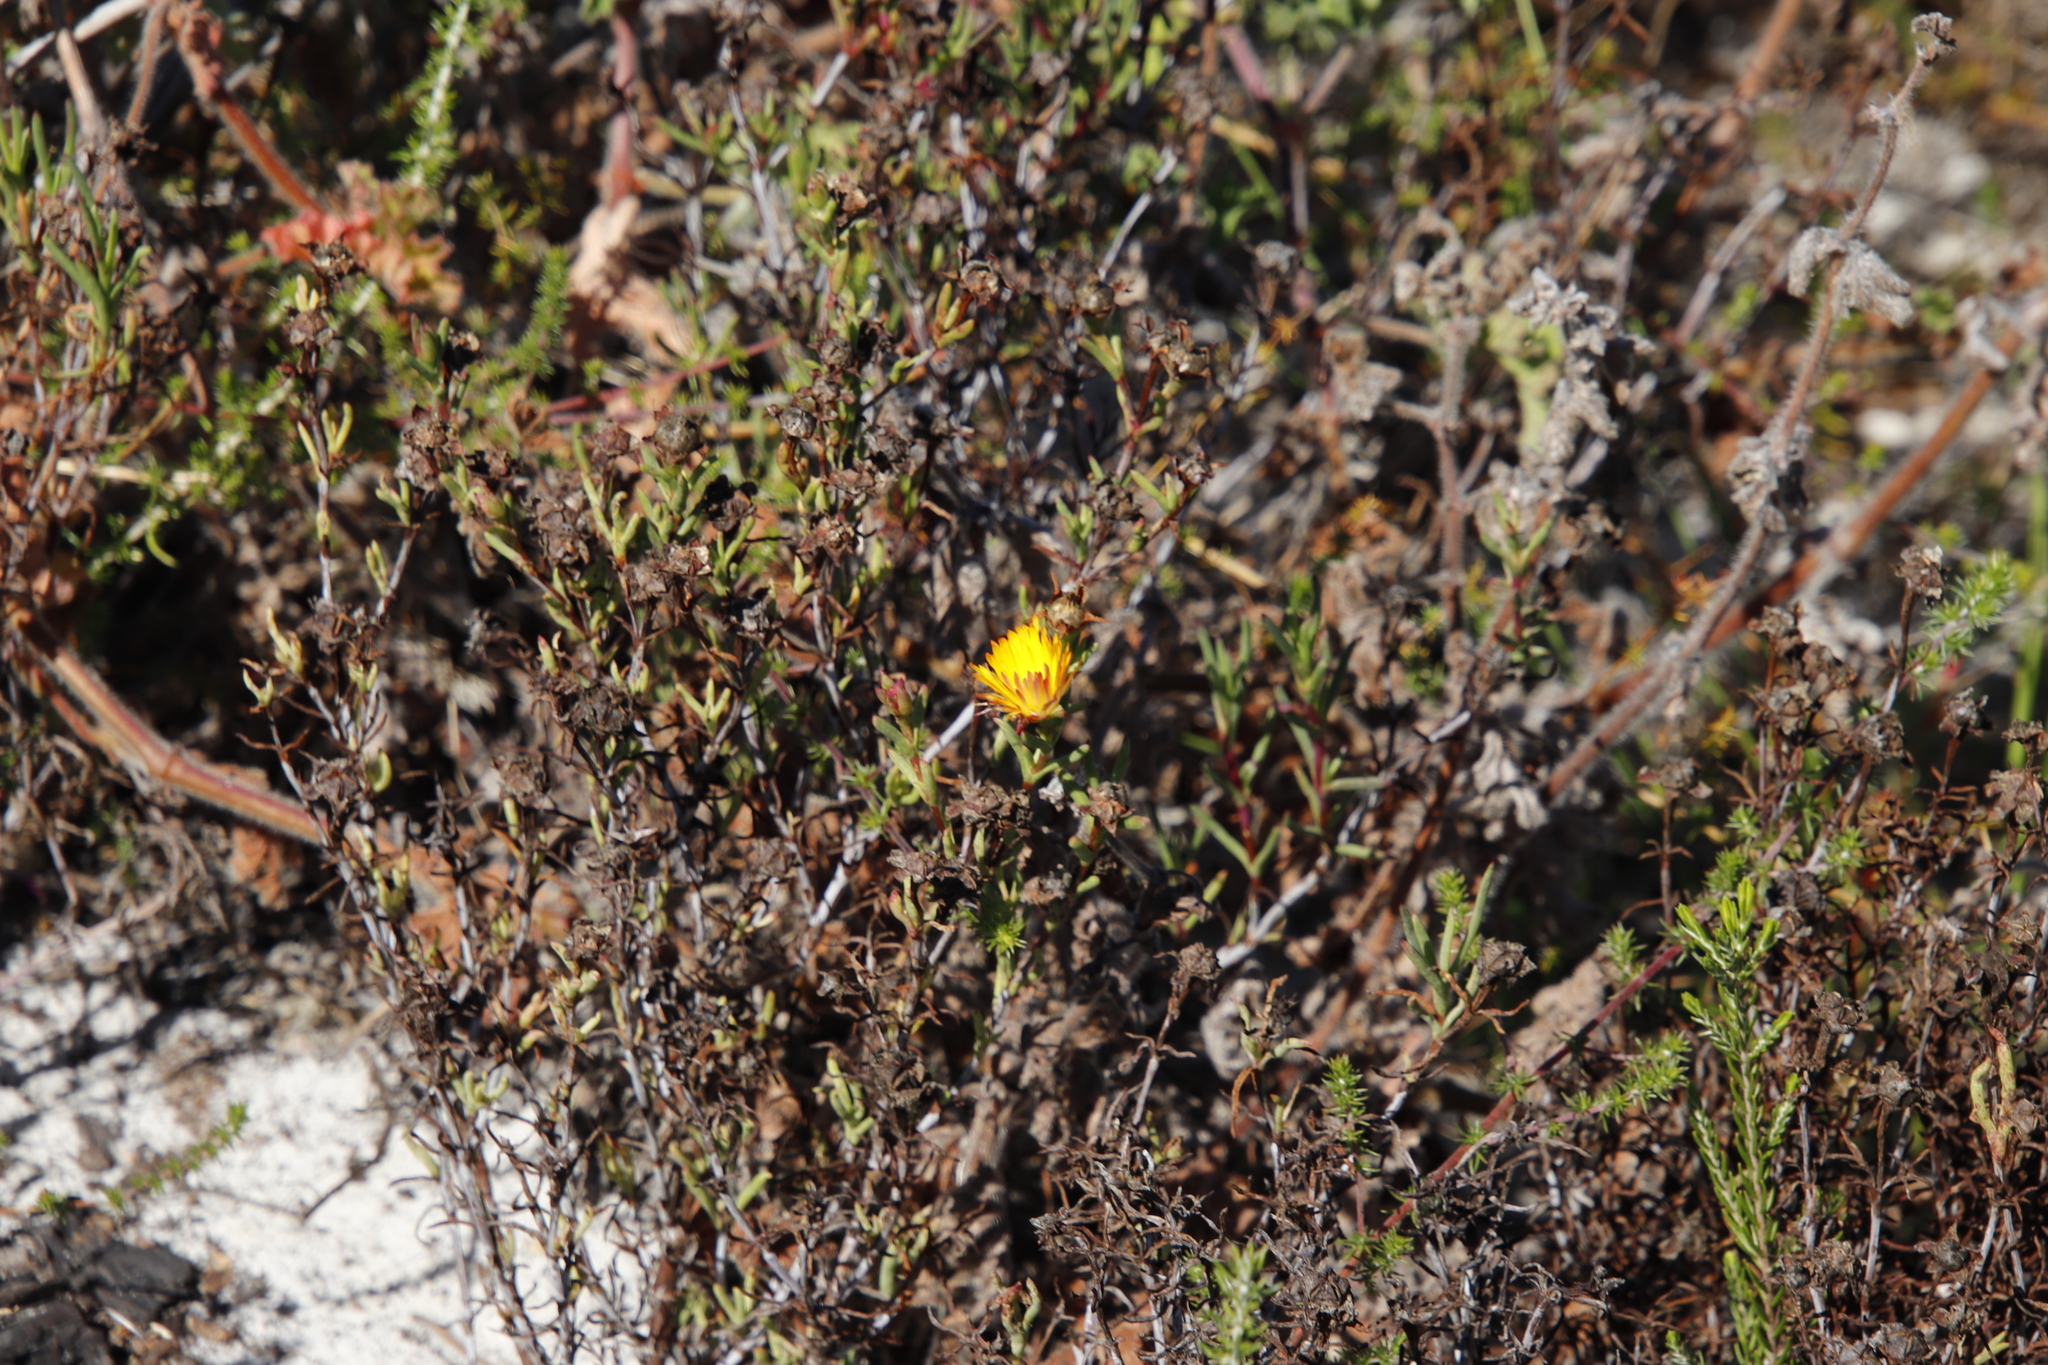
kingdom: Plantae
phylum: Tracheophyta
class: Magnoliopsida
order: Caryophyllales
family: Aizoaceae
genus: Lampranthus
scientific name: Lampranthus bicolor
